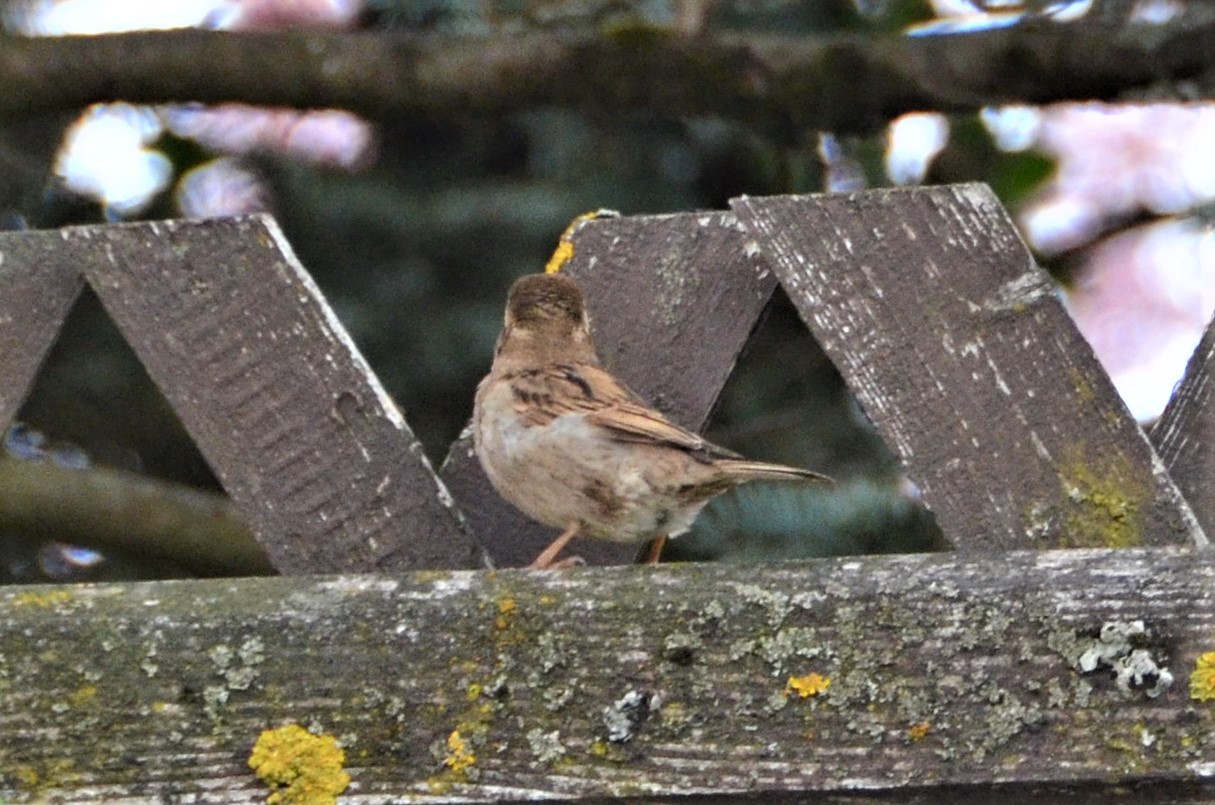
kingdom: Animalia
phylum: Chordata
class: Aves
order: Passeriformes
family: Passeridae
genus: Passer
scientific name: Passer domesticus
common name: House sparrow
